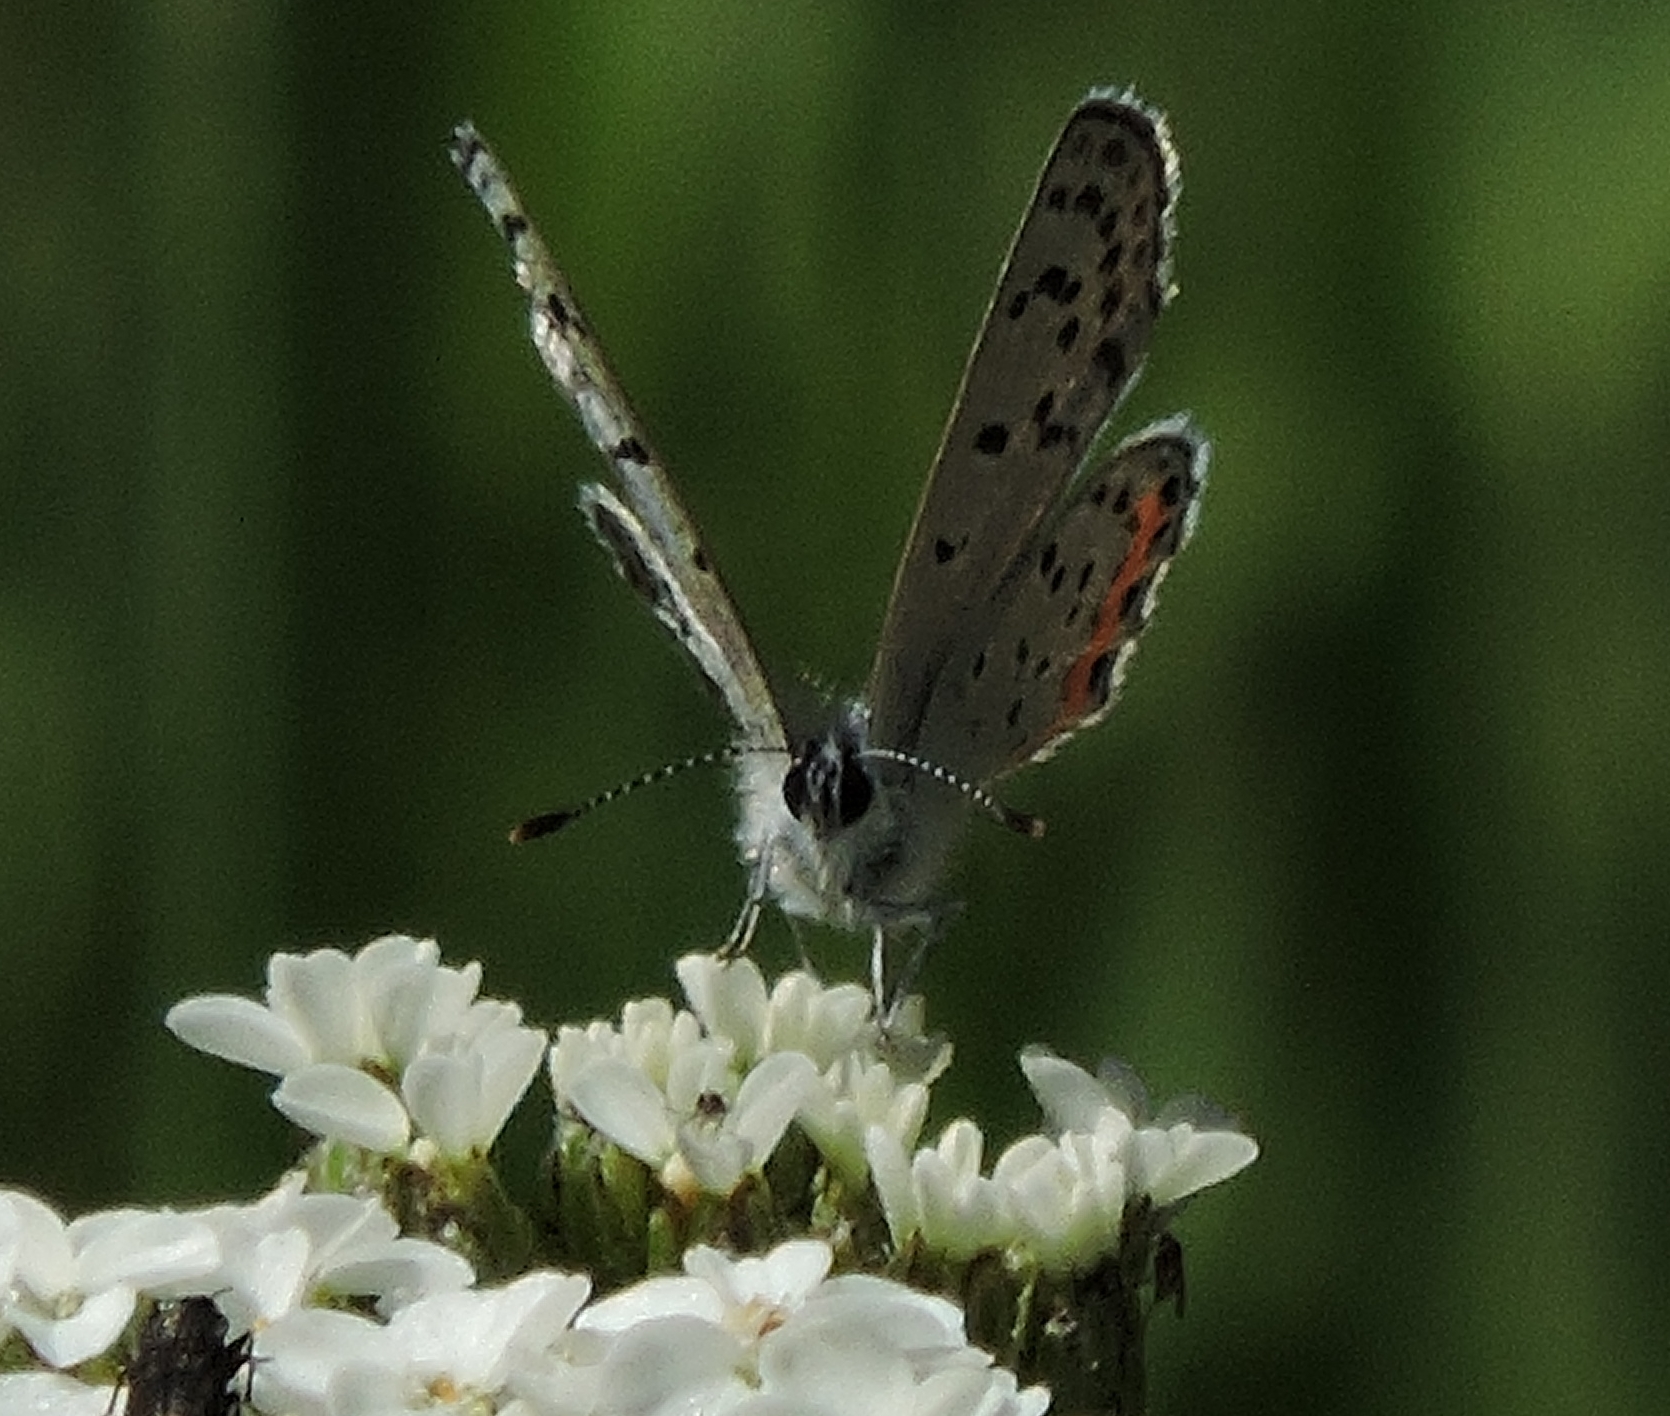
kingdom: Animalia
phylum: Arthropoda
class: Insecta
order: Lepidoptera
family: Lycaenidae
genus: Icaricia
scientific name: Icaricia acmon
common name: Acmon blue
